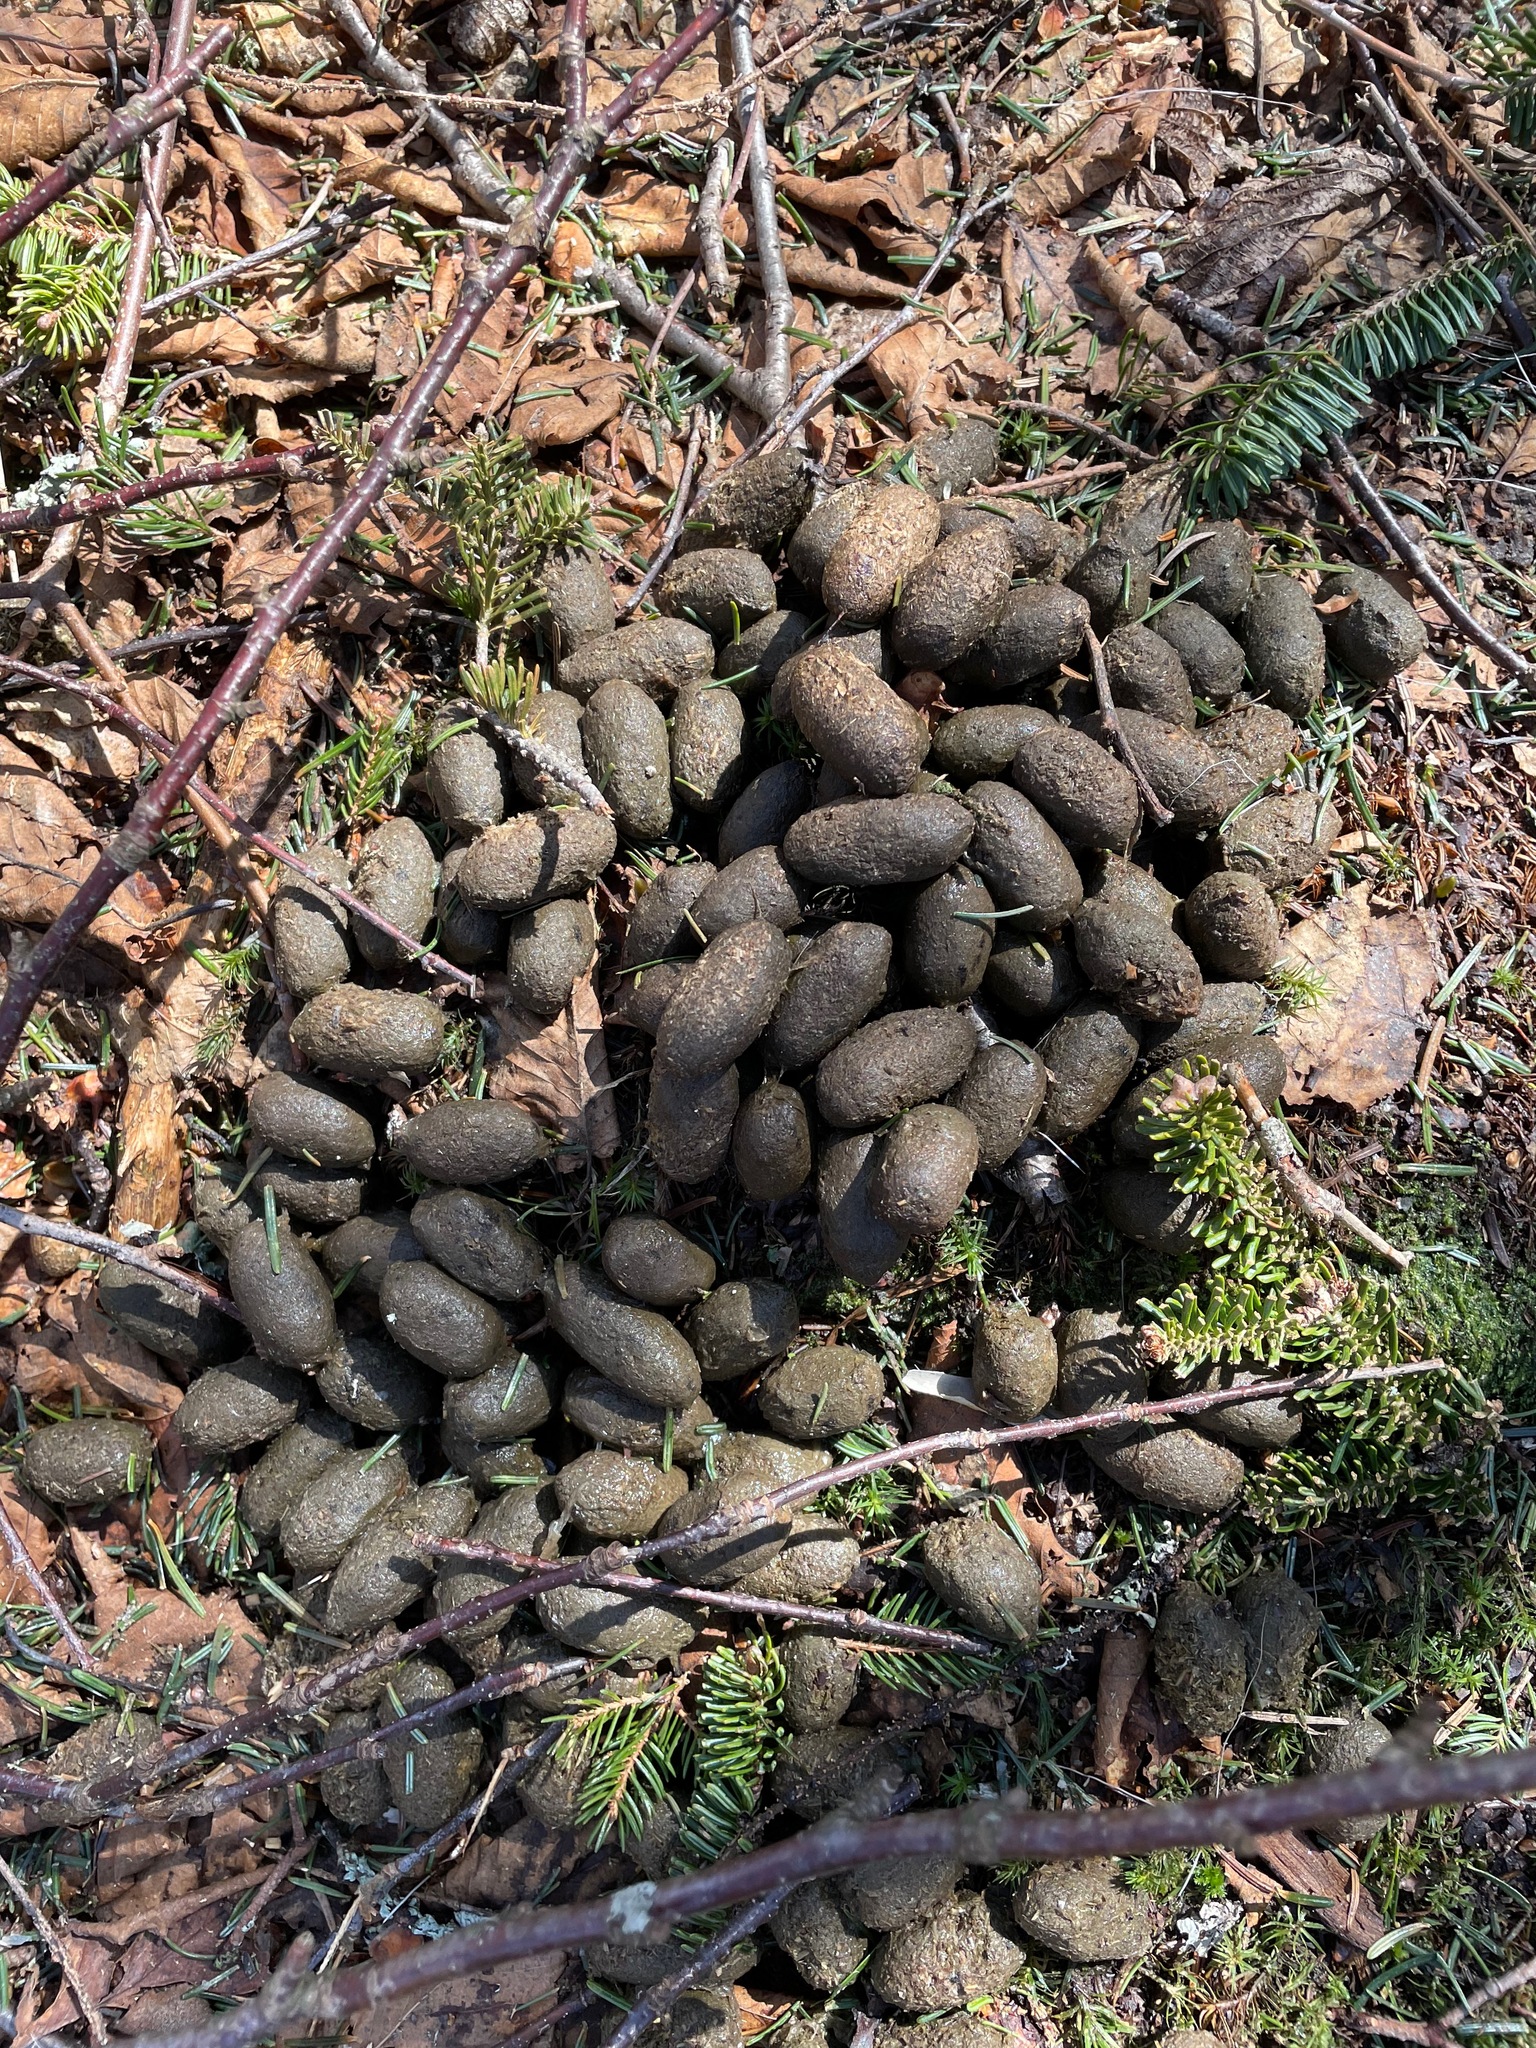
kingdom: Animalia
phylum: Chordata
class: Mammalia
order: Artiodactyla
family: Cervidae
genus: Alces
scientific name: Alces alces
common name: Moose
